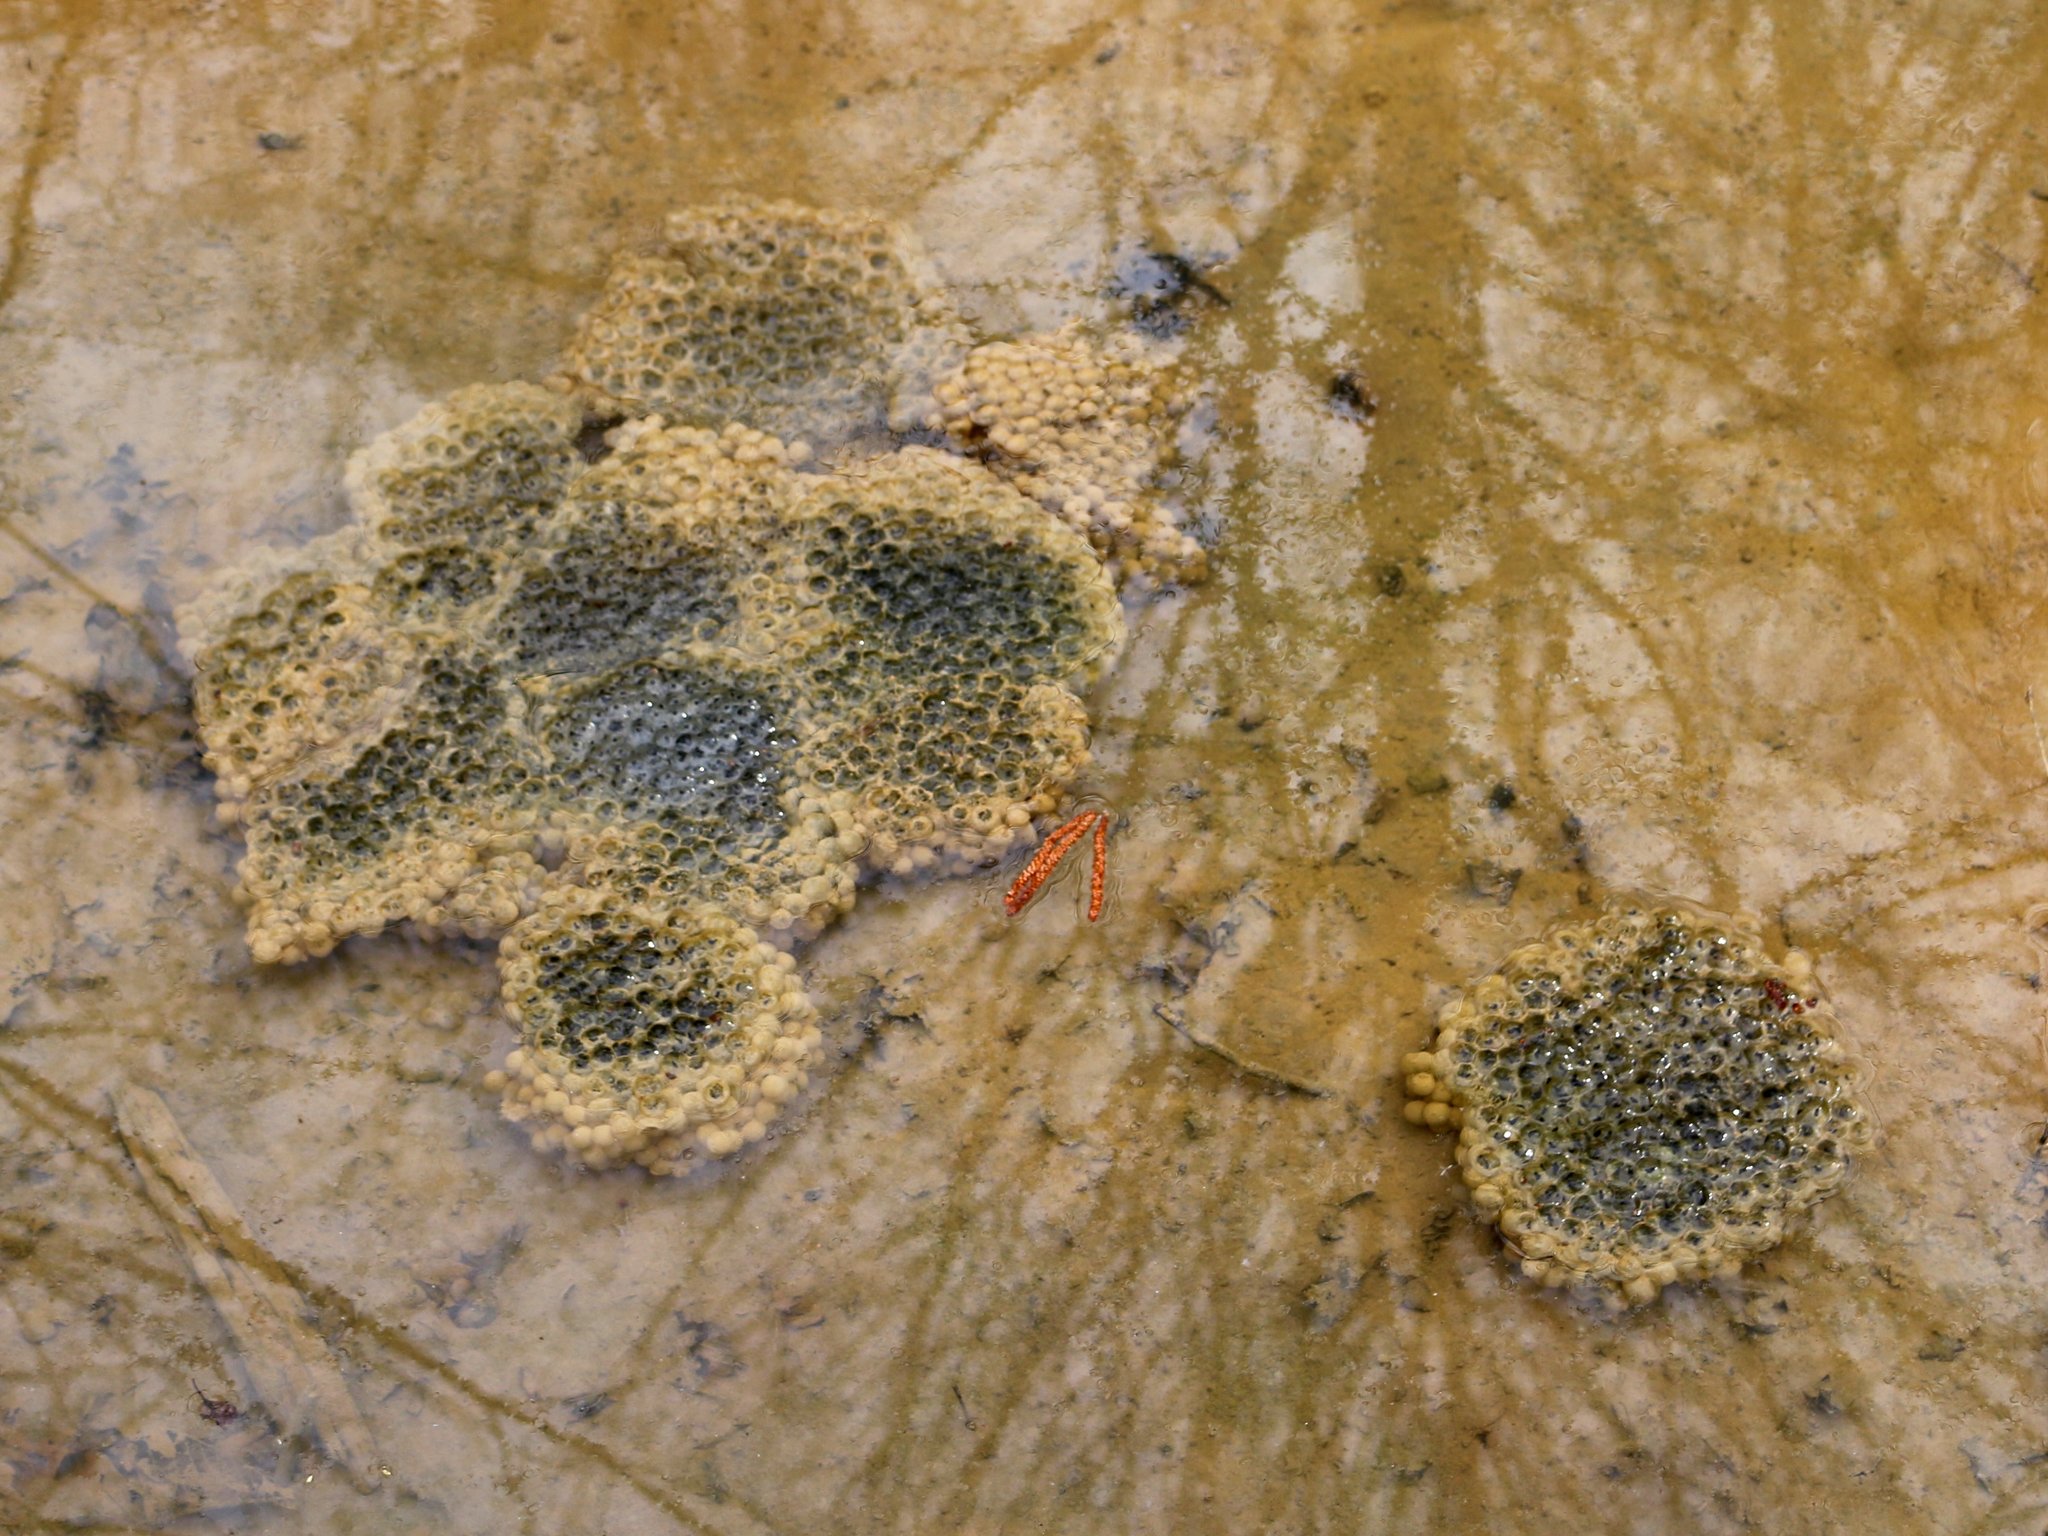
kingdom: Animalia
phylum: Chordata
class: Amphibia
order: Anura
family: Ranidae
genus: Rana
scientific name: Rana macrocnemis
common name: Banded frog
